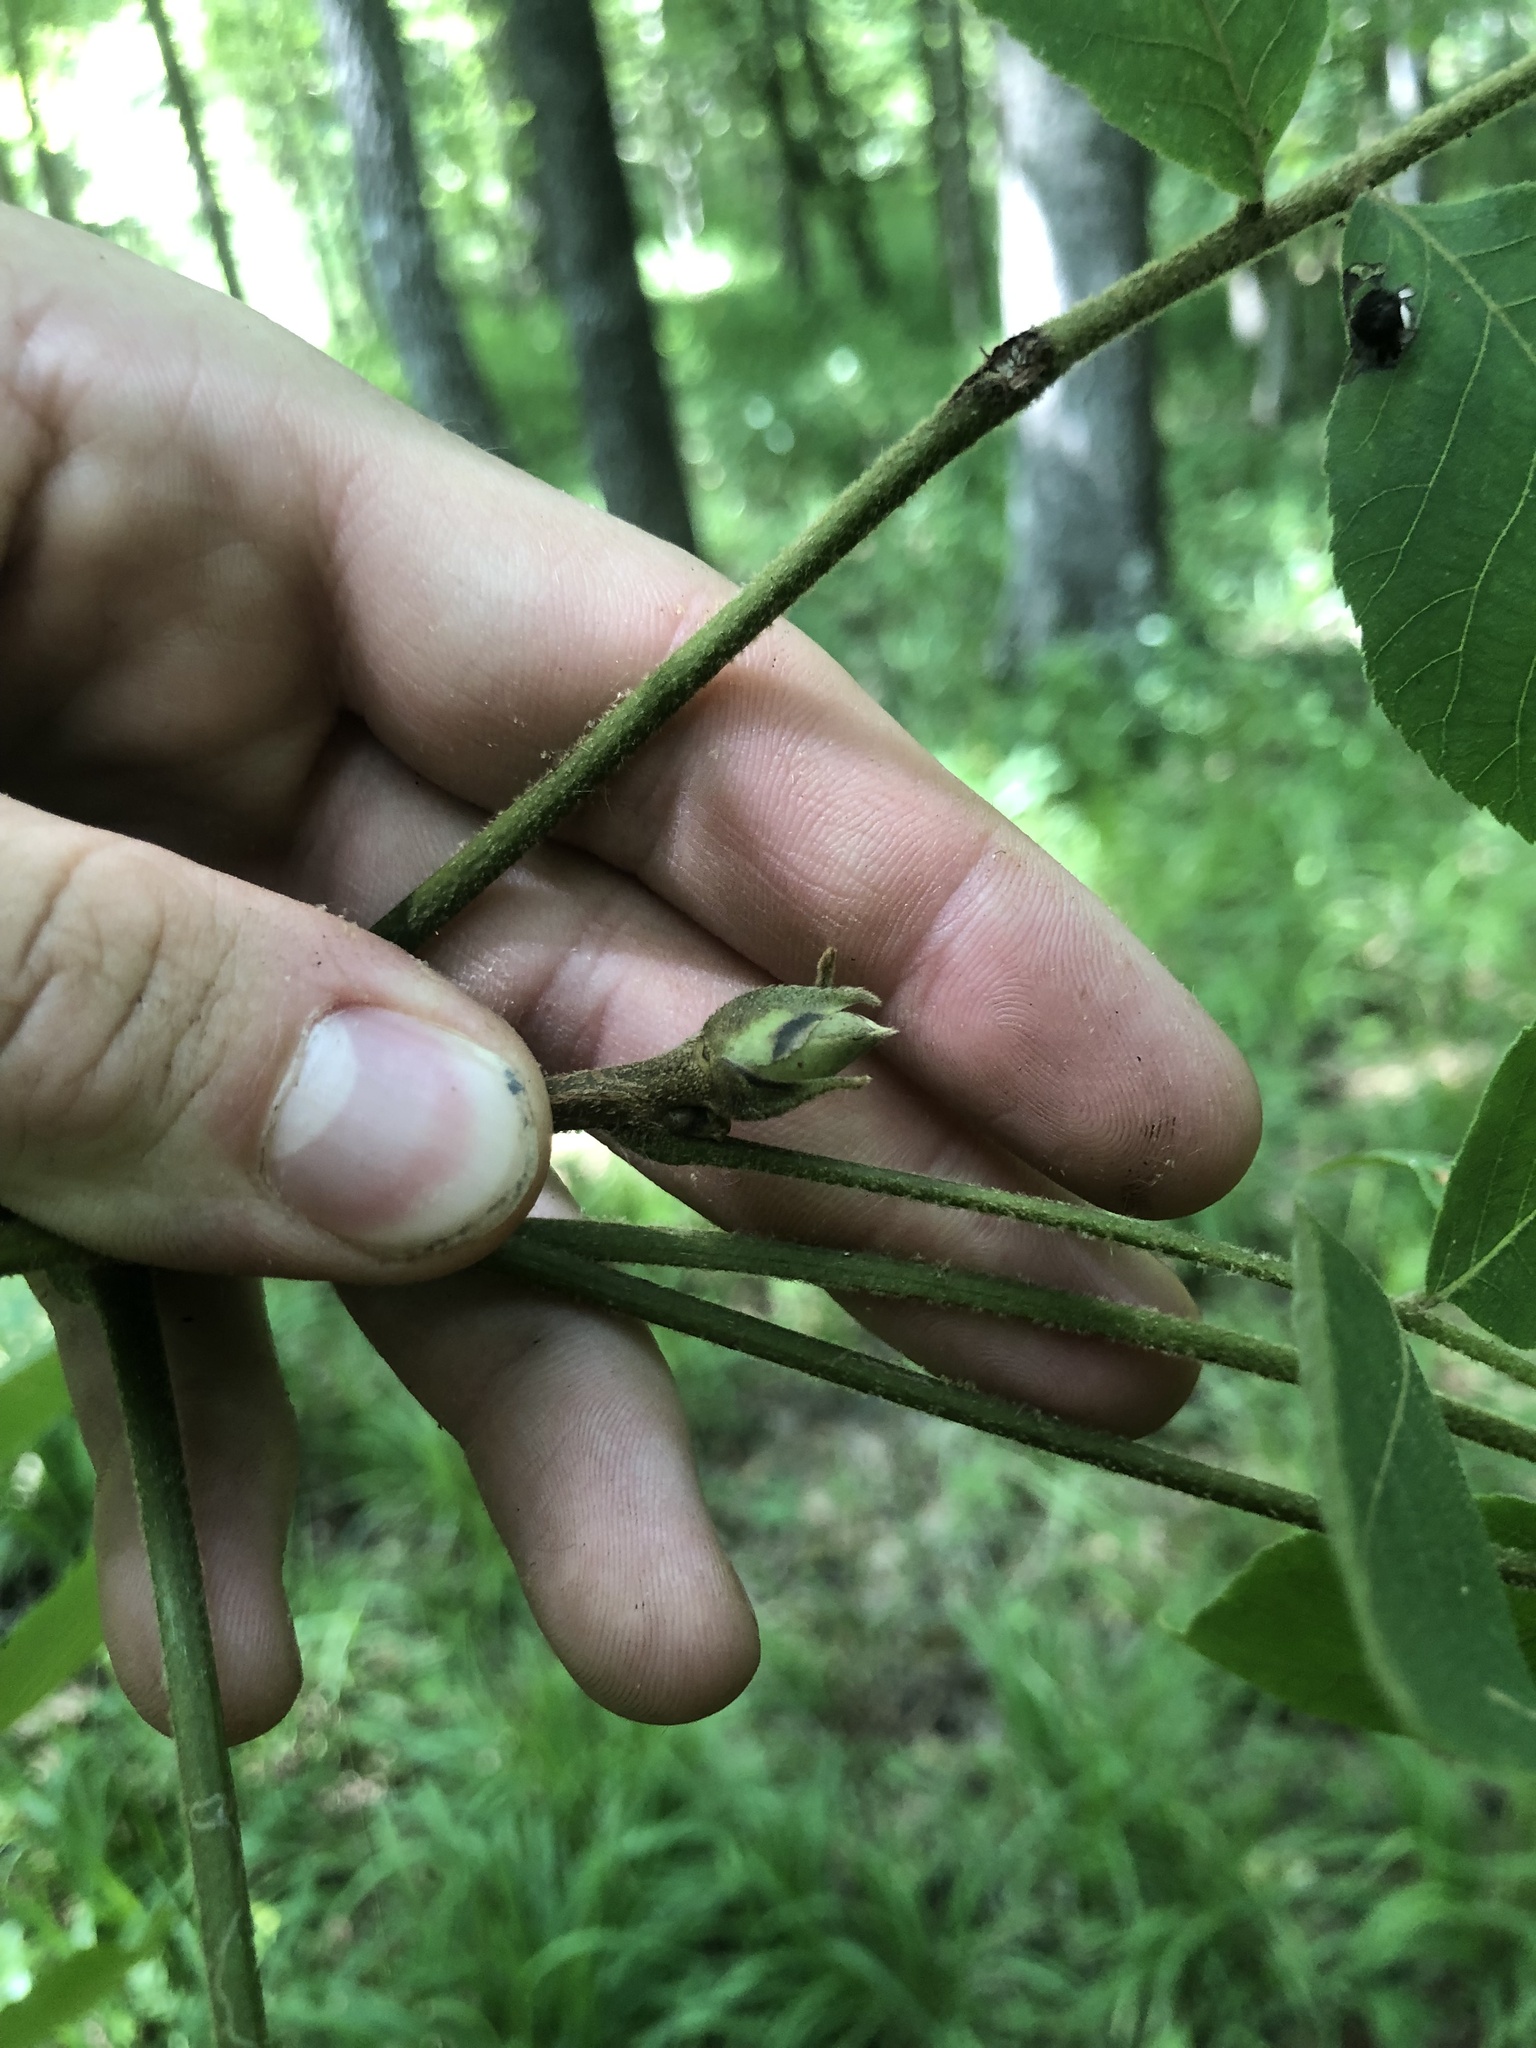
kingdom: Plantae
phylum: Tracheophyta
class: Magnoliopsida
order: Fagales
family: Juglandaceae
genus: Carya
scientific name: Carya alba
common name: Mockernut hickory
